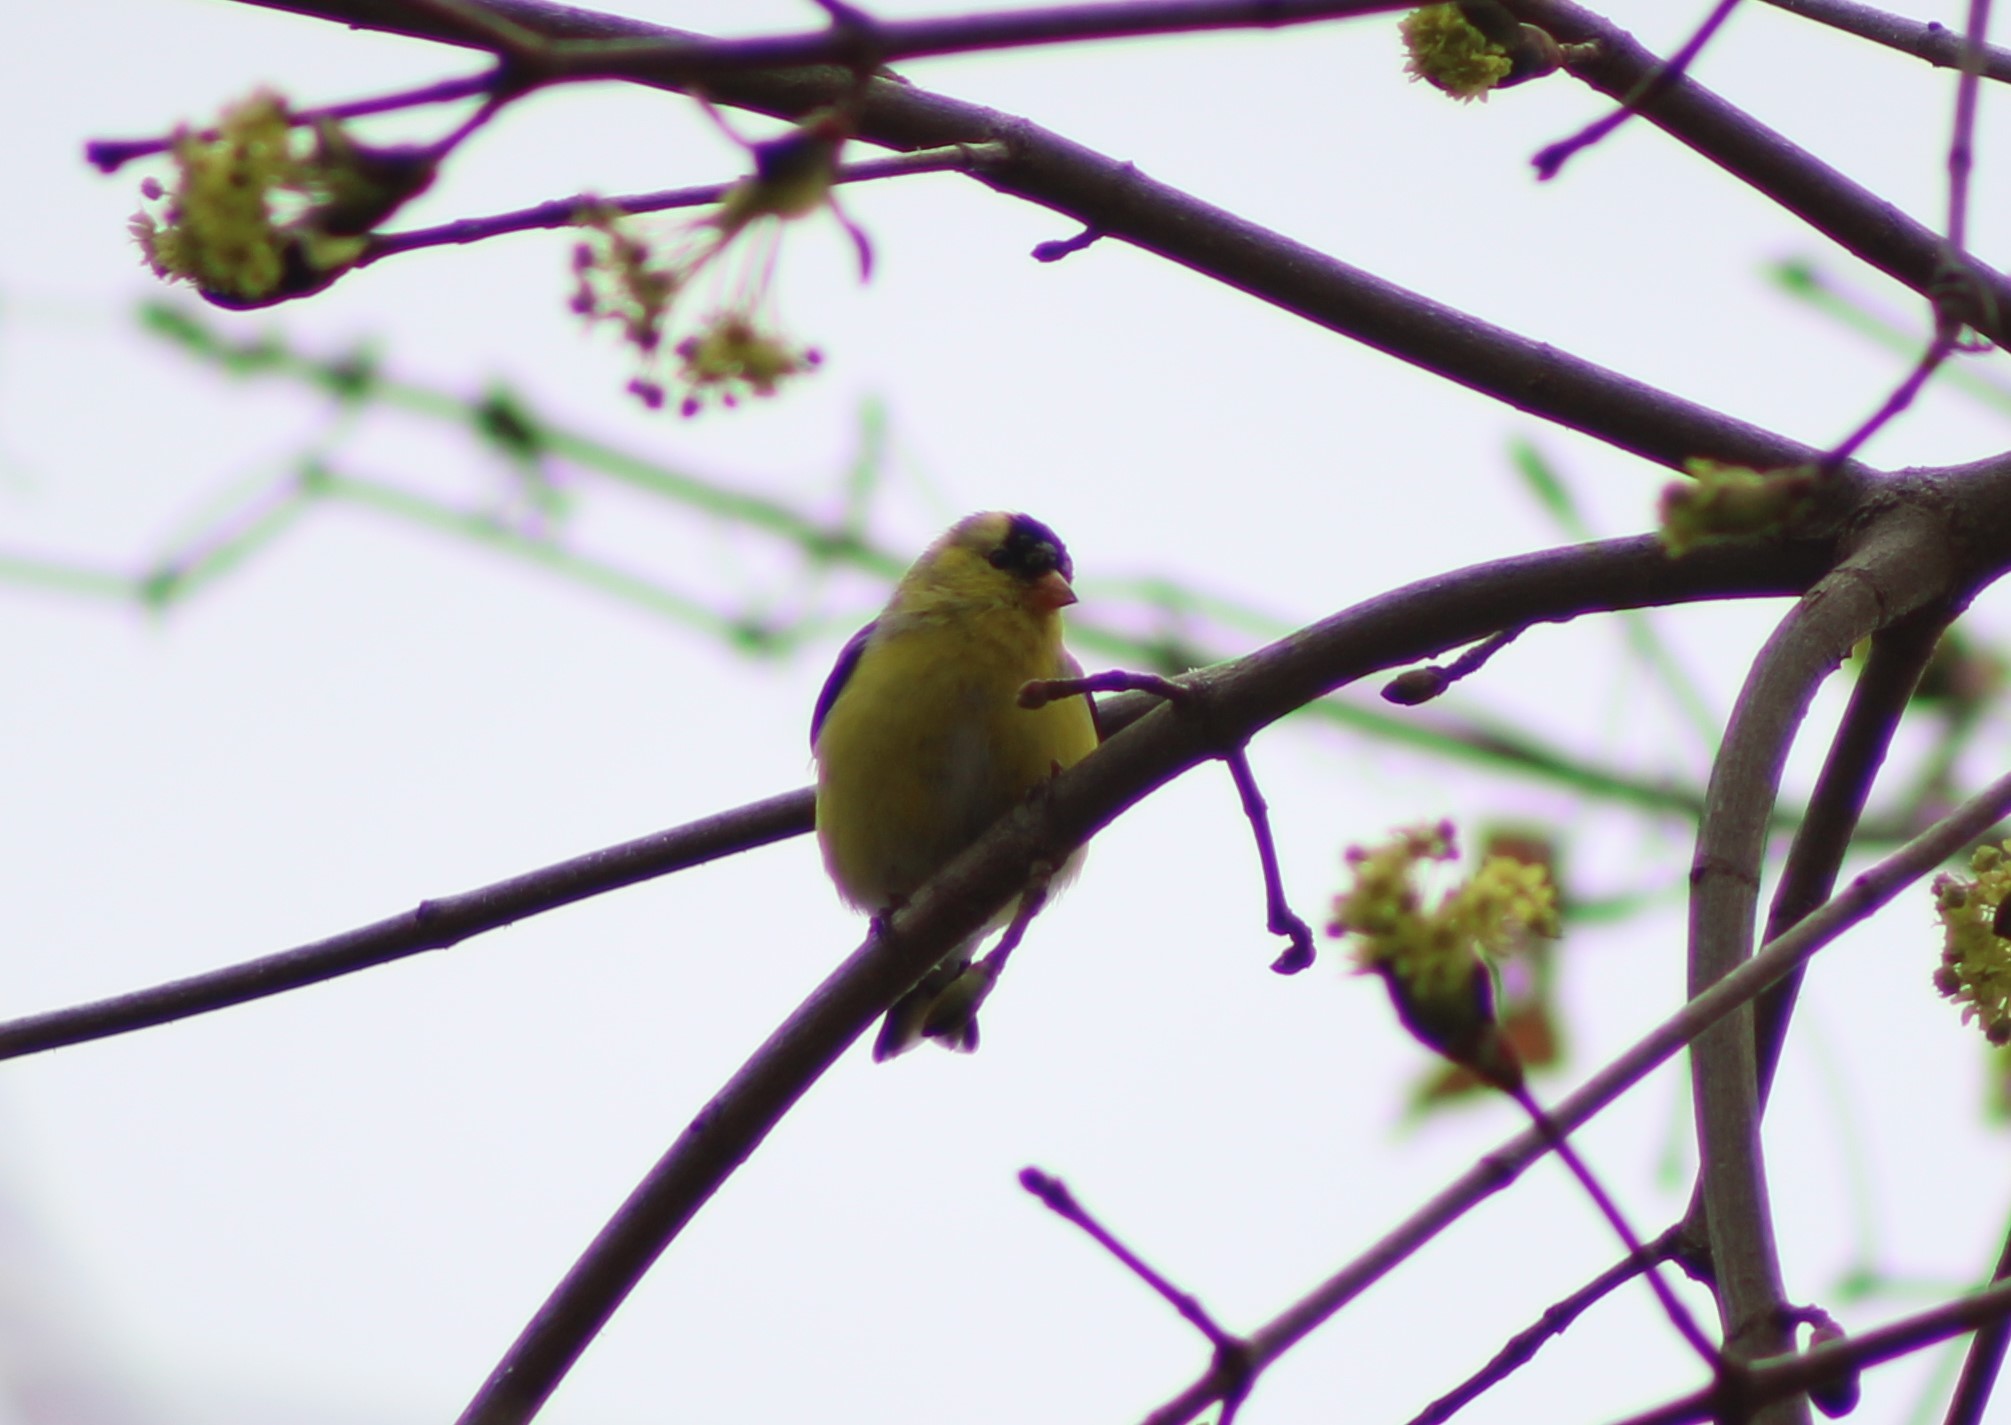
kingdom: Animalia
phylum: Chordata
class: Aves
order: Passeriformes
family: Fringillidae
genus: Spinus
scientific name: Spinus tristis
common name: American goldfinch
